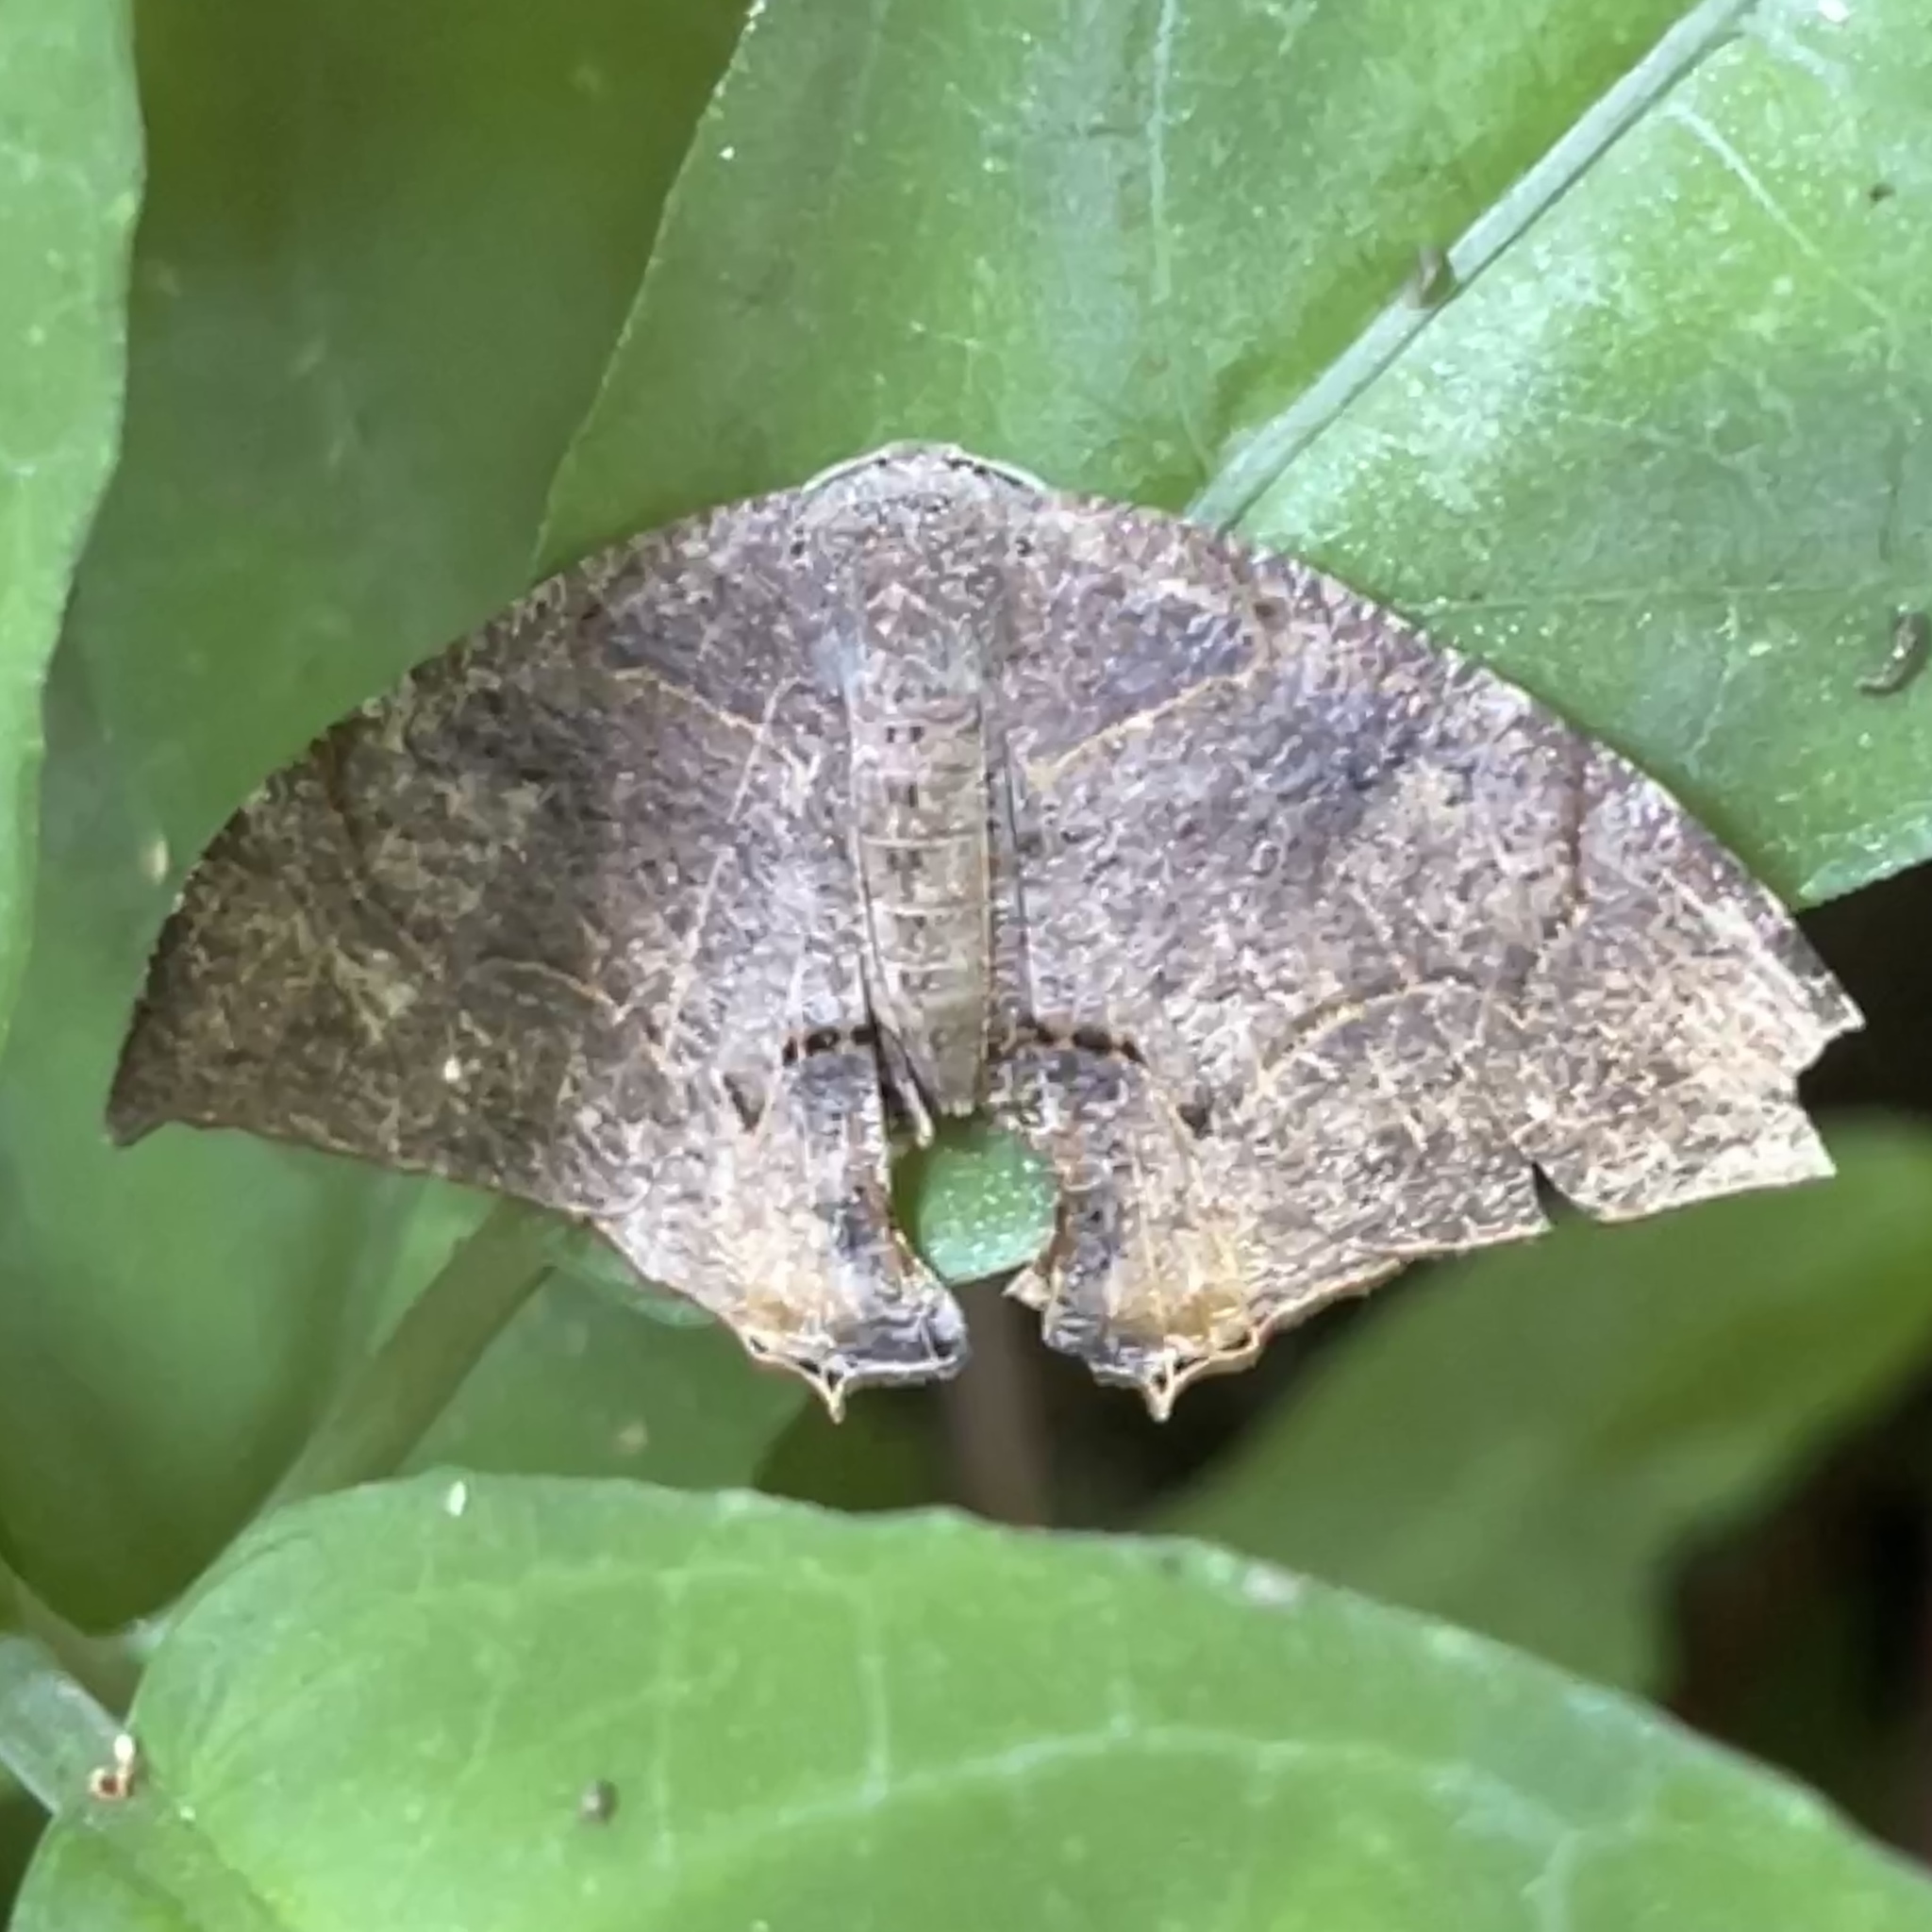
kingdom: Animalia
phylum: Arthropoda
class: Insecta
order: Lepidoptera
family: Uraniidae
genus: Syngria
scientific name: Syngria druidaria
